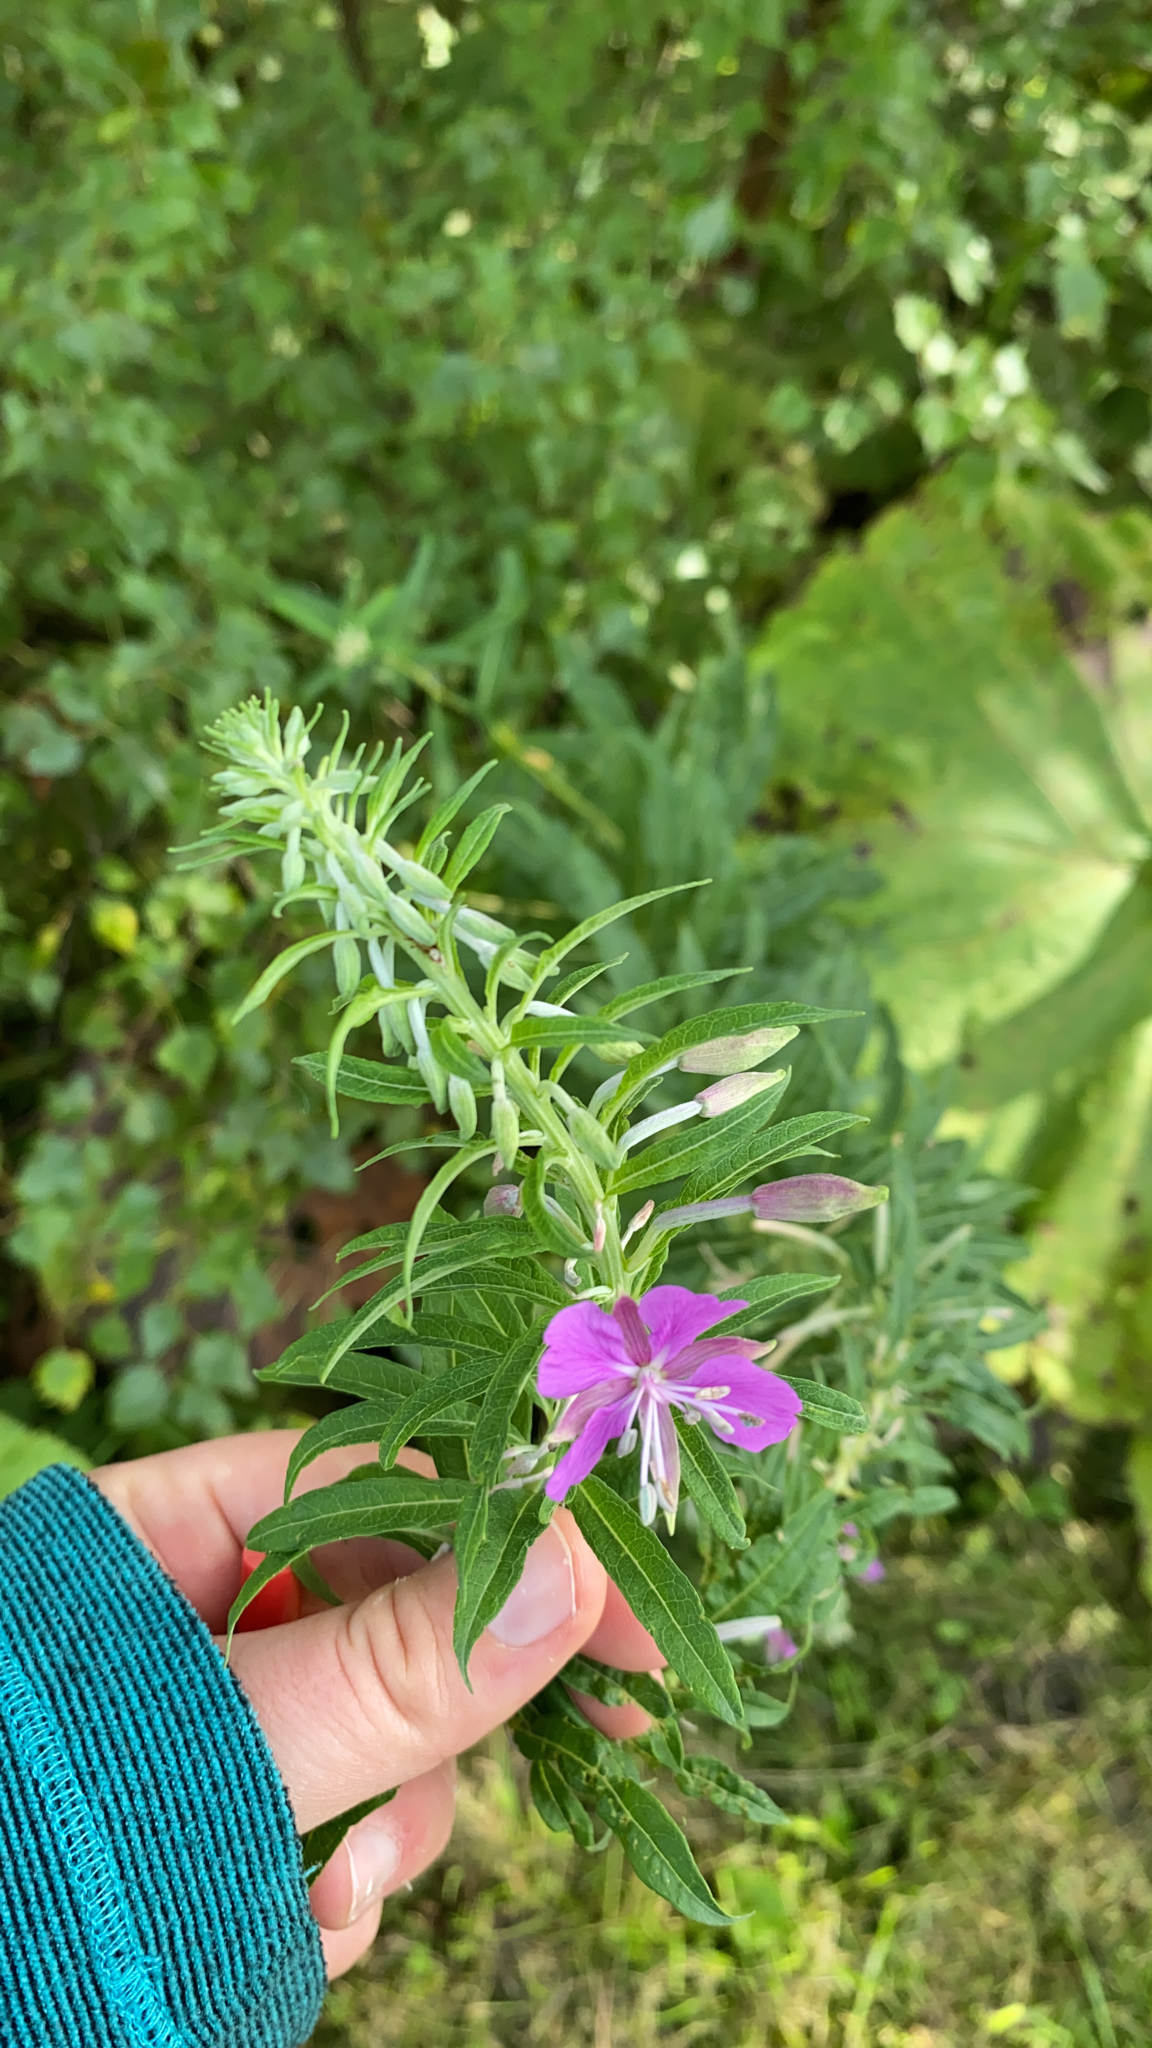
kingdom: Plantae
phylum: Tracheophyta
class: Magnoliopsida
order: Myrtales
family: Onagraceae
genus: Chamaenerion
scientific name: Chamaenerion angustifolium
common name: Fireweed
